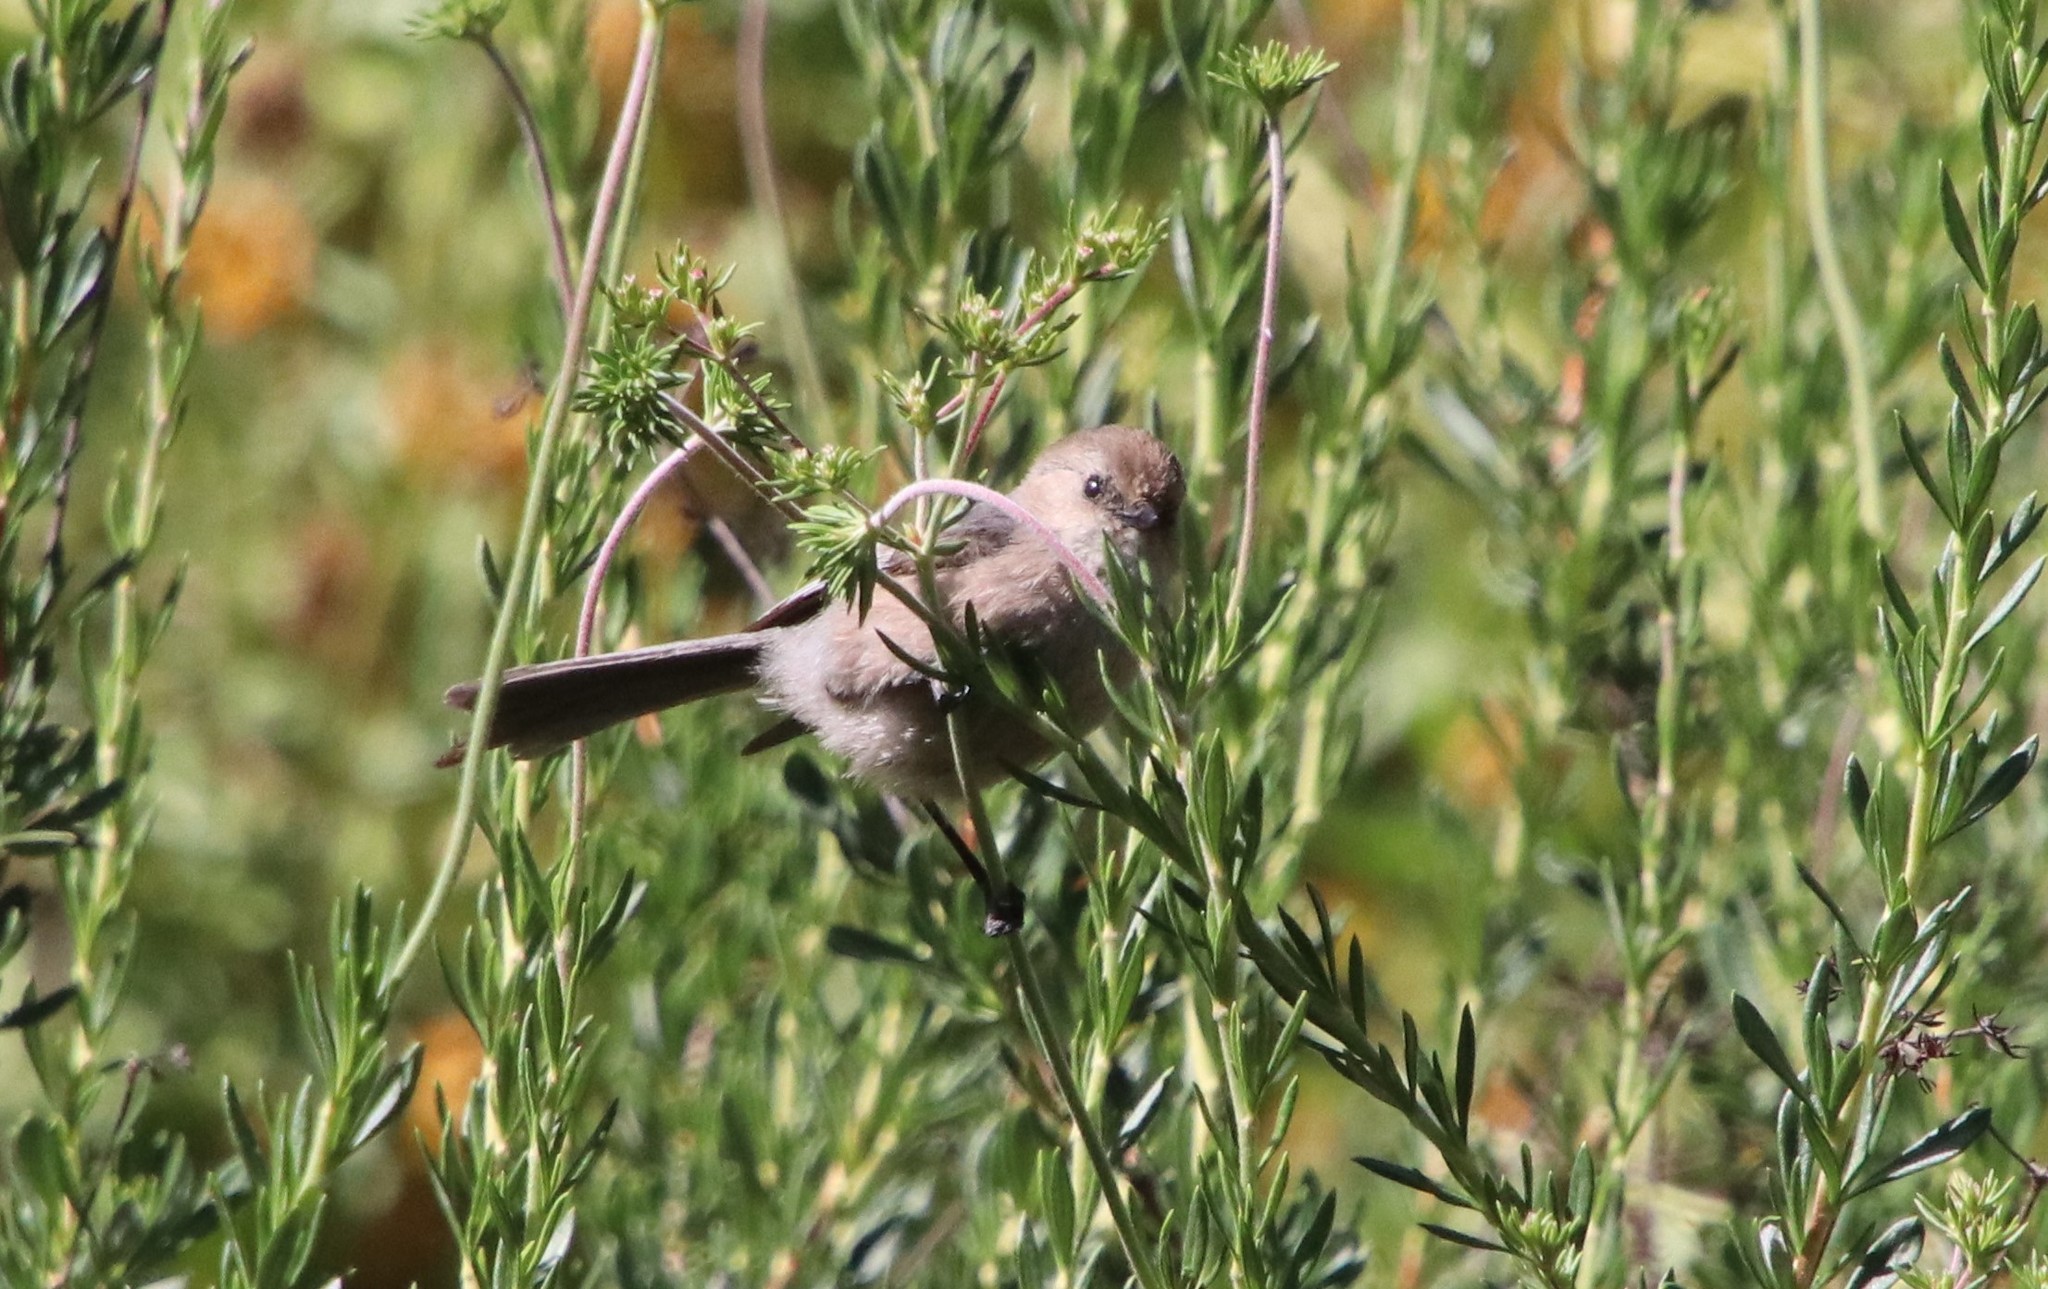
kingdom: Animalia
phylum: Chordata
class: Aves
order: Passeriformes
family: Aegithalidae
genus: Psaltriparus
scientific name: Psaltriparus minimus
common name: American bushtit
